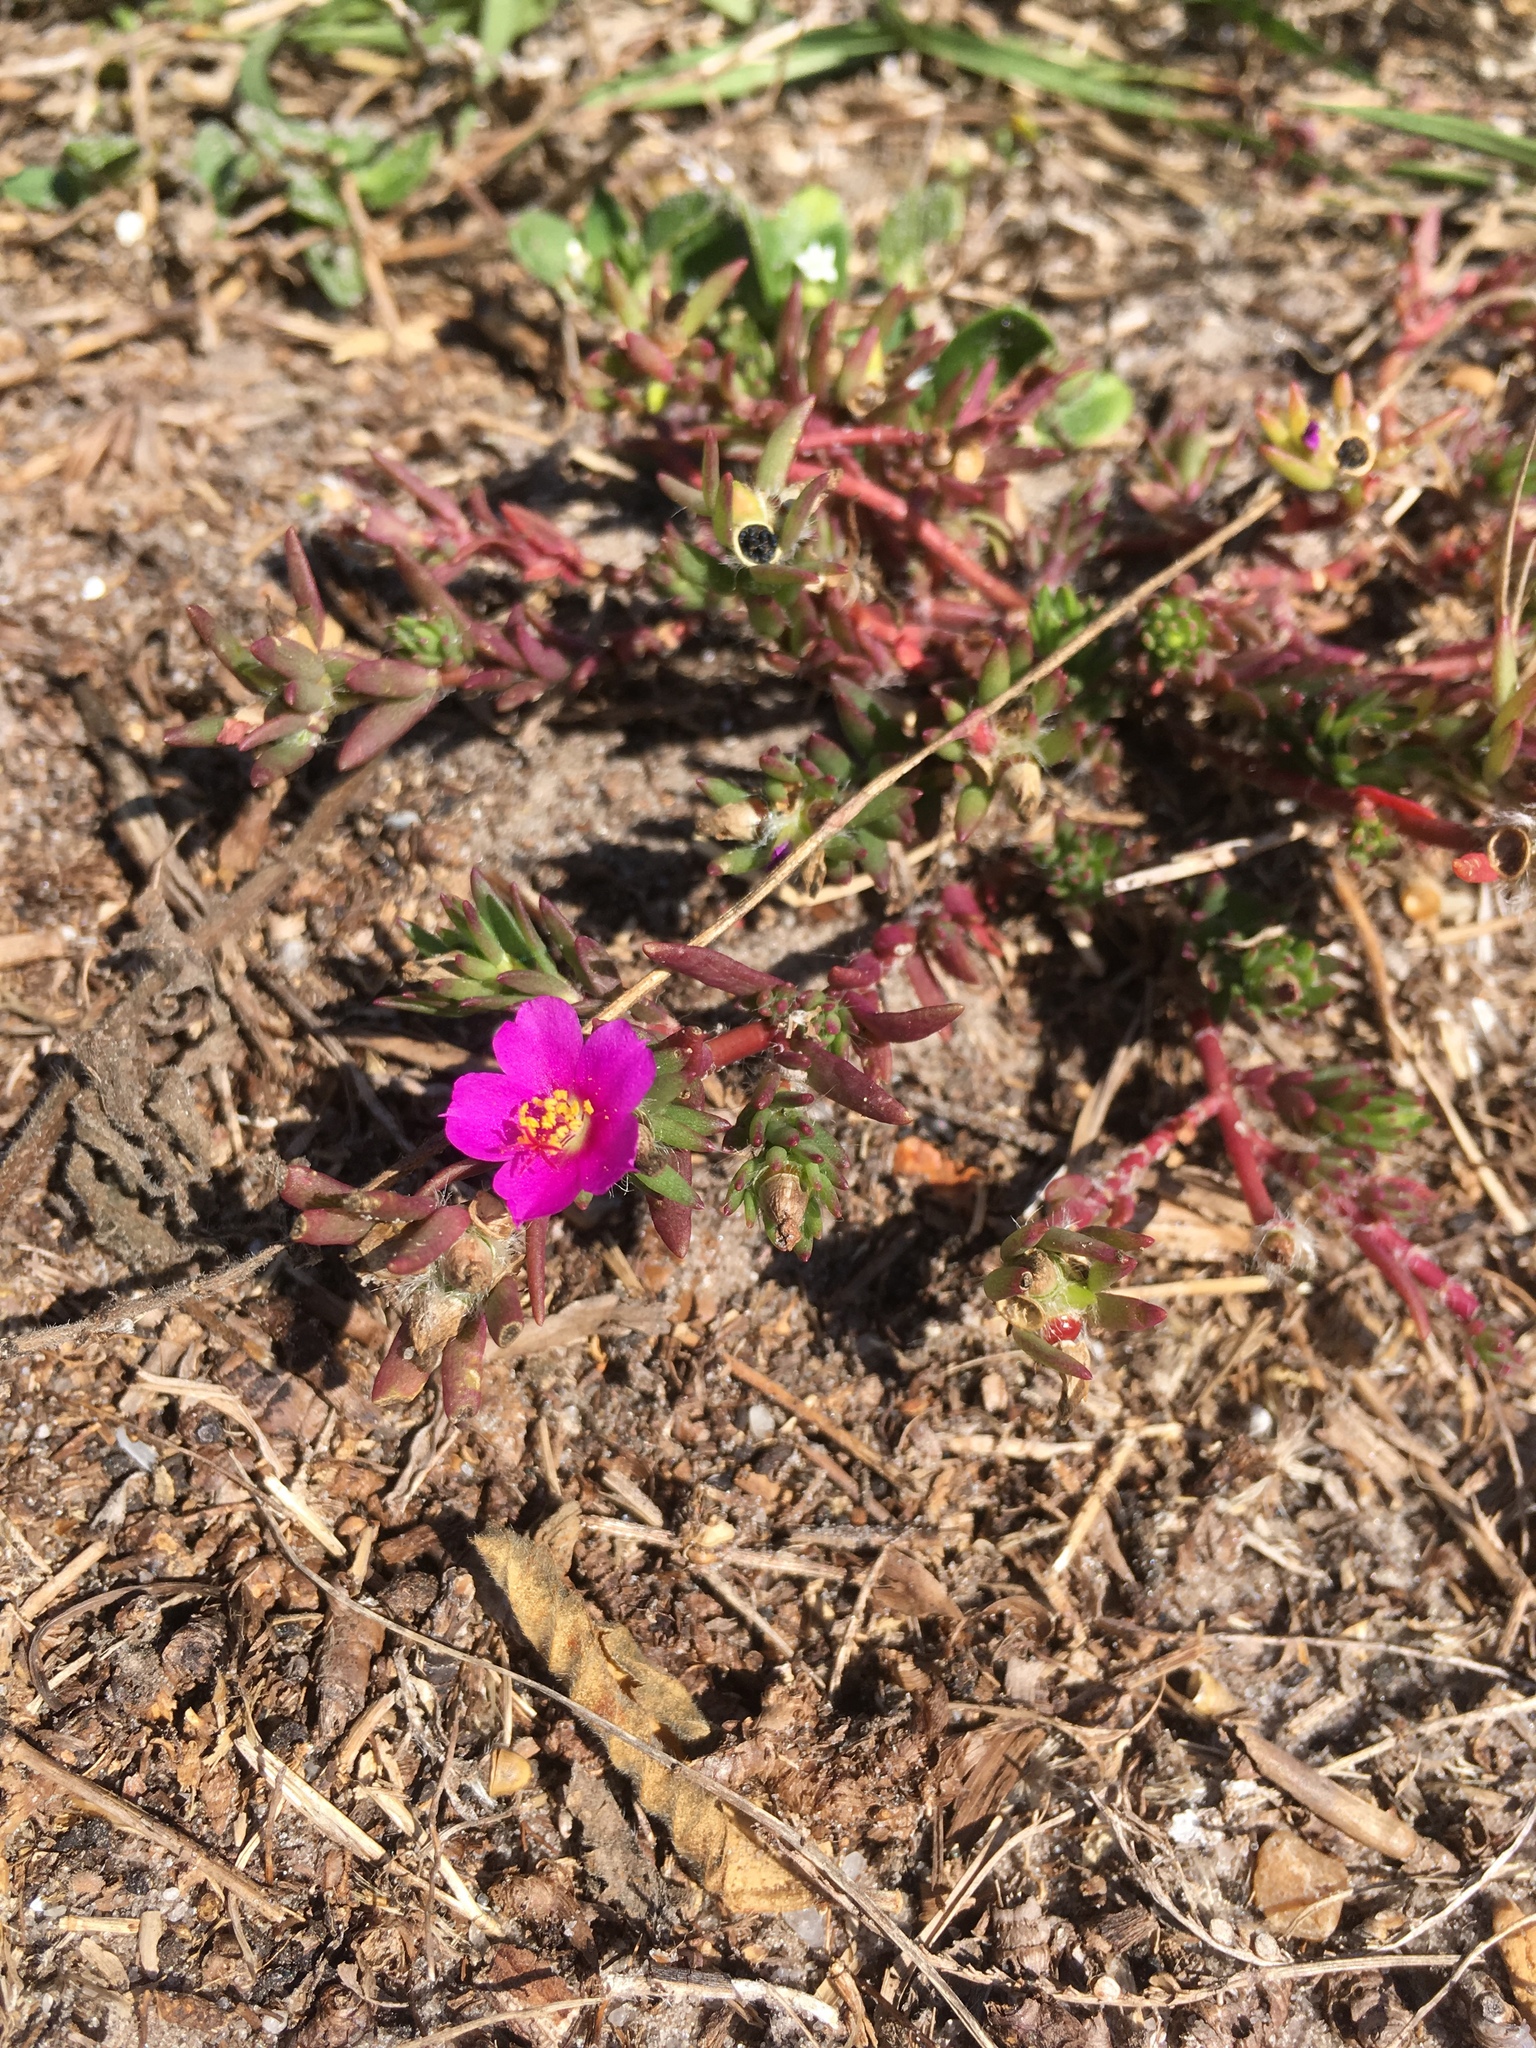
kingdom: Plantae
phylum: Tracheophyta
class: Magnoliopsida
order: Caryophyllales
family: Portulacaceae
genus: Portulaca
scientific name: Portulaca pilosa
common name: Kiss me quick
